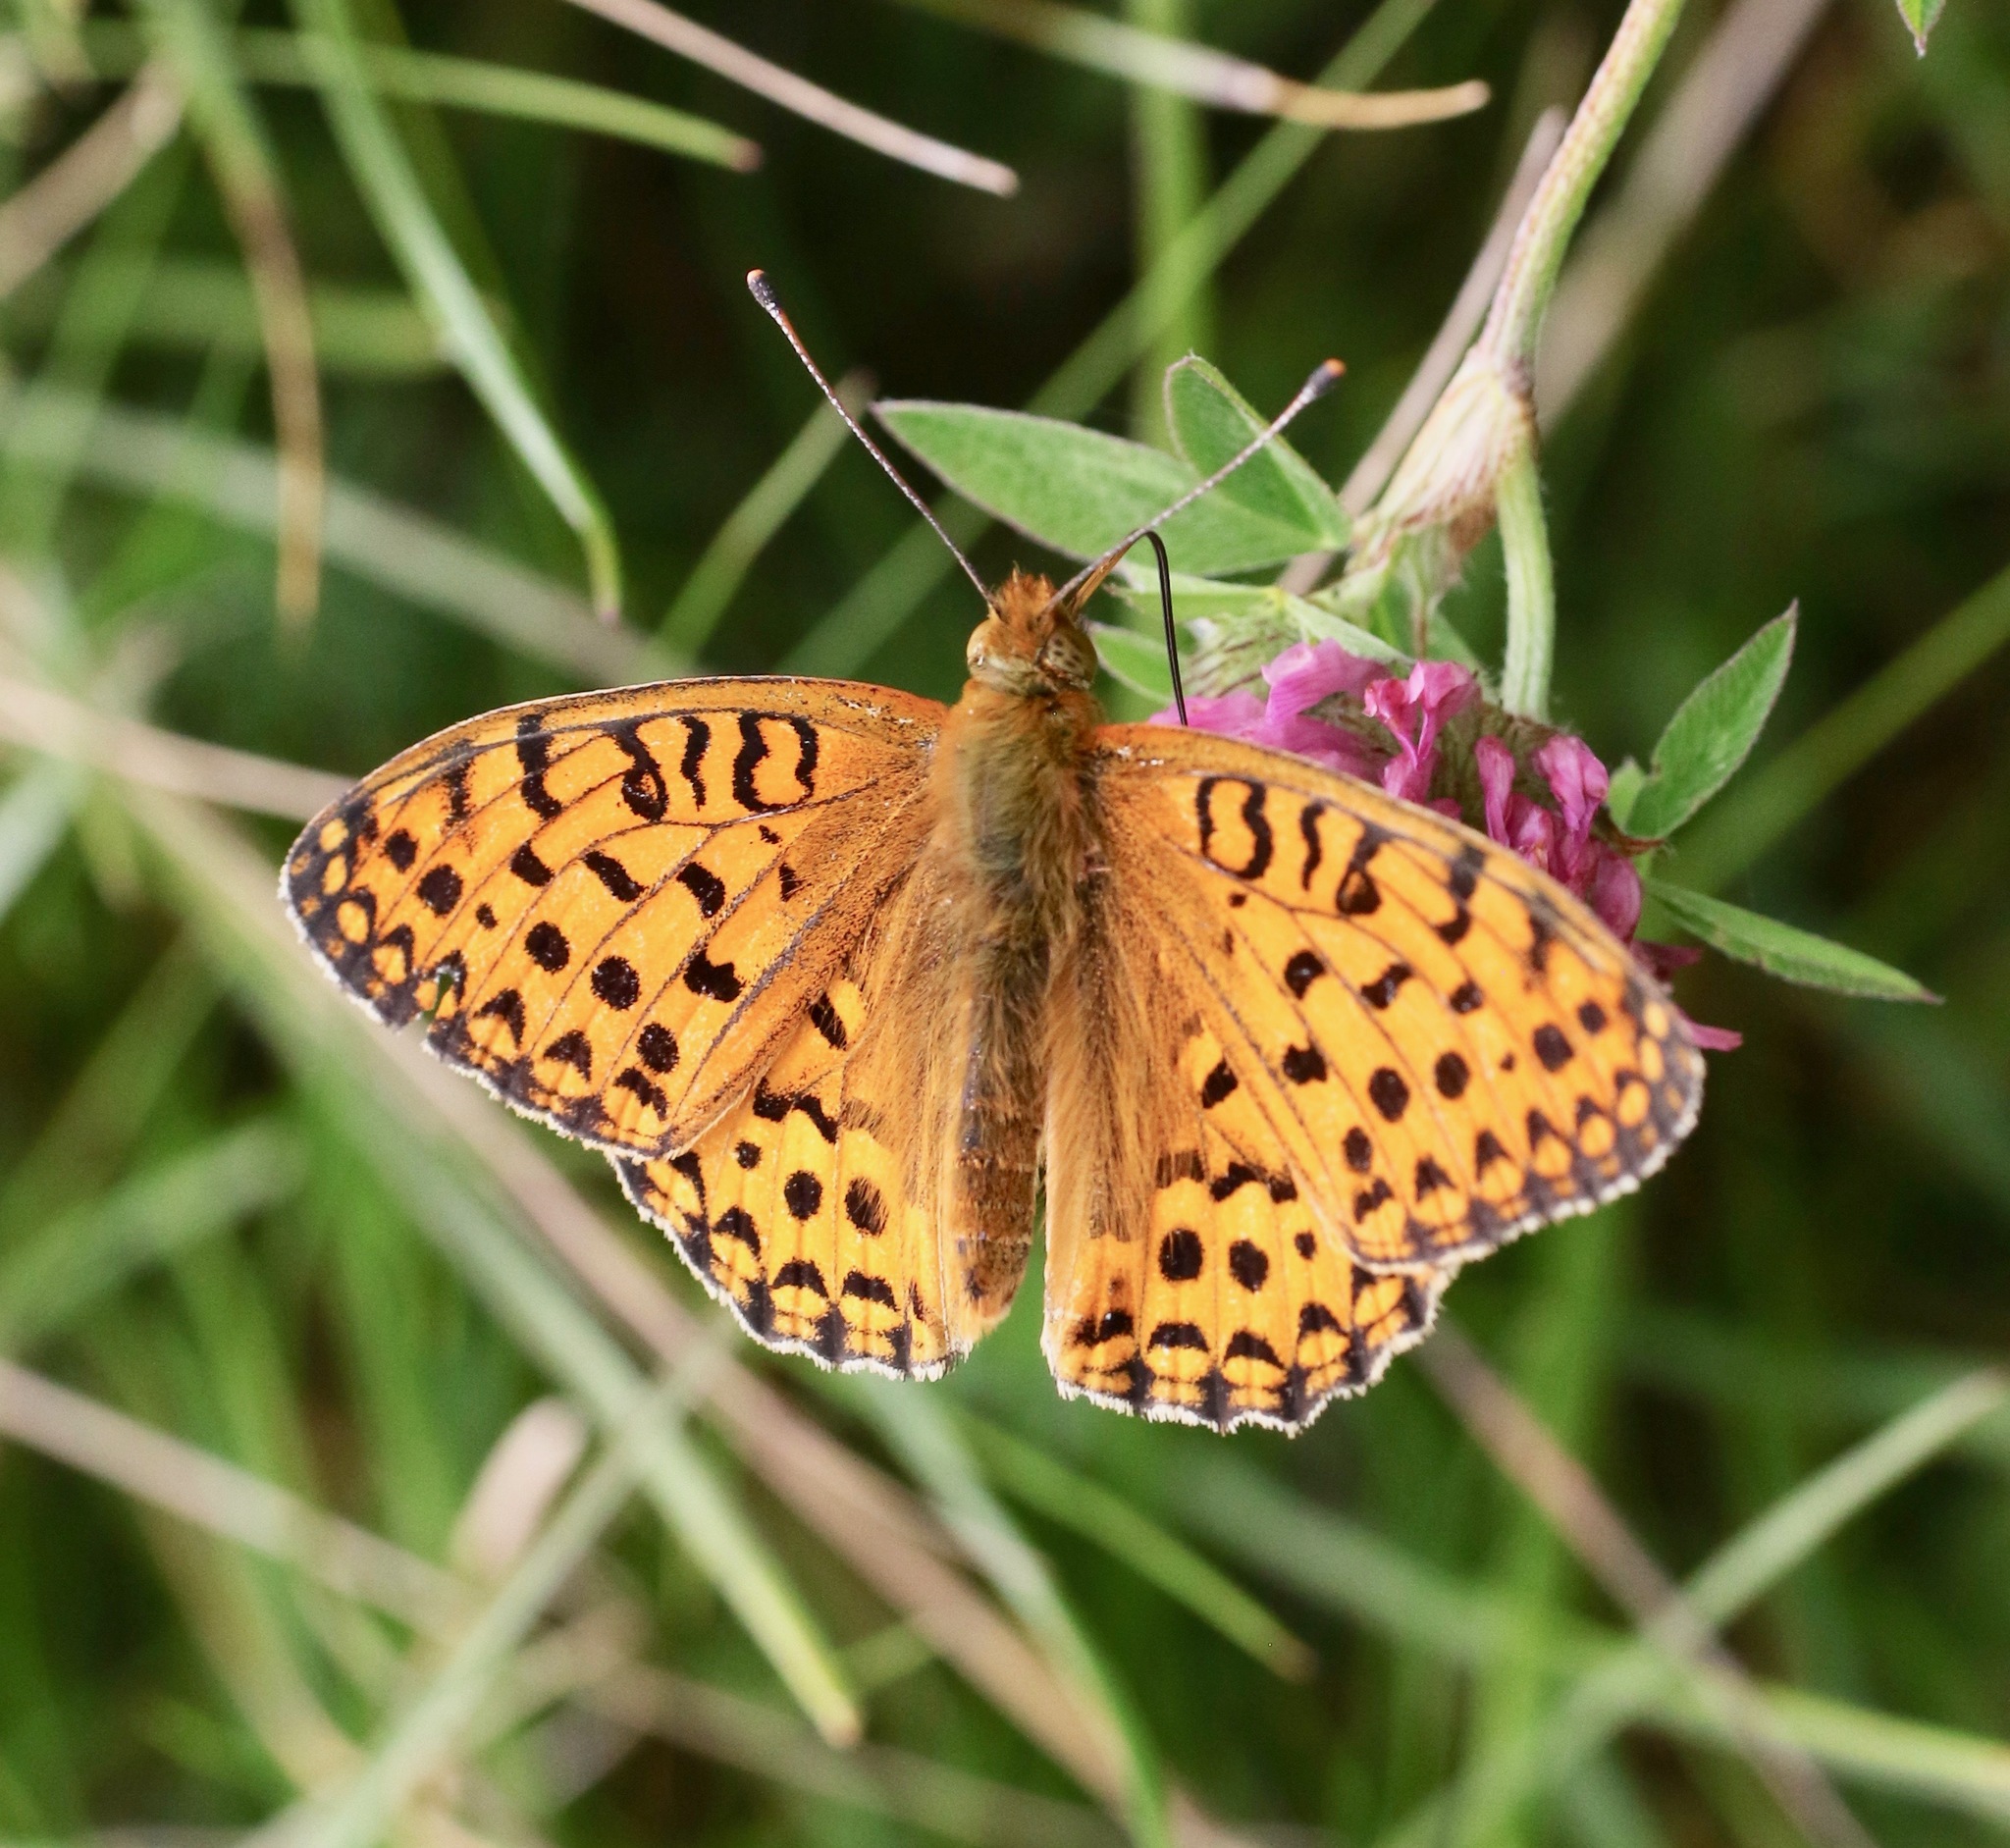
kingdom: Animalia
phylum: Arthropoda
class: Insecta
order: Lepidoptera
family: Nymphalidae
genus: Speyeria
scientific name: Speyeria aglaja
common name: Dark green fritillary
